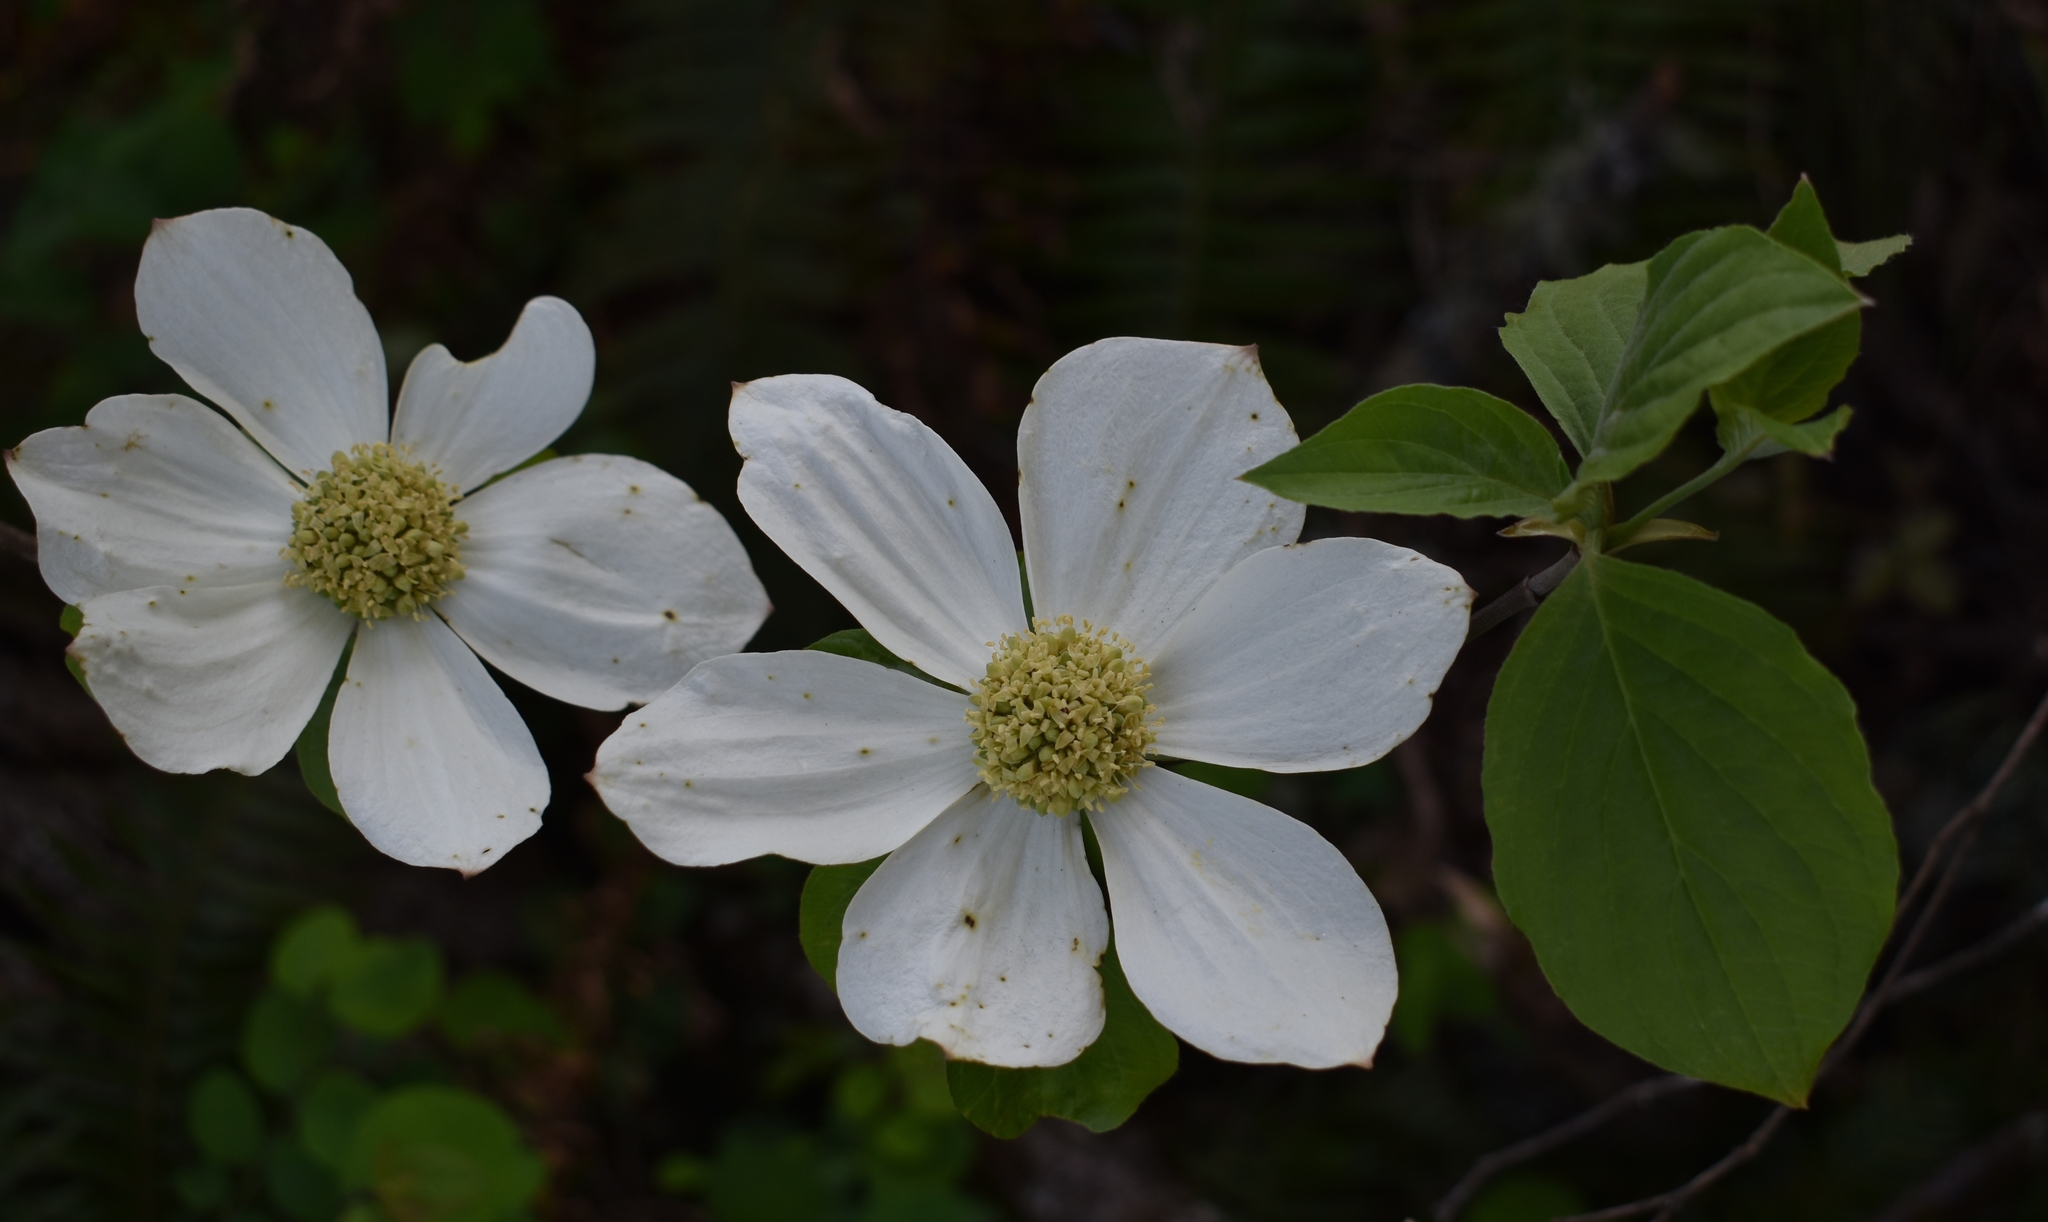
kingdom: Plantae
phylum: Tracheophyta
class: Magnoliopsida
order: Cornales
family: Cornaceae
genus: Cornus
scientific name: Cornus nuttallii
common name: Pacific dogwood
